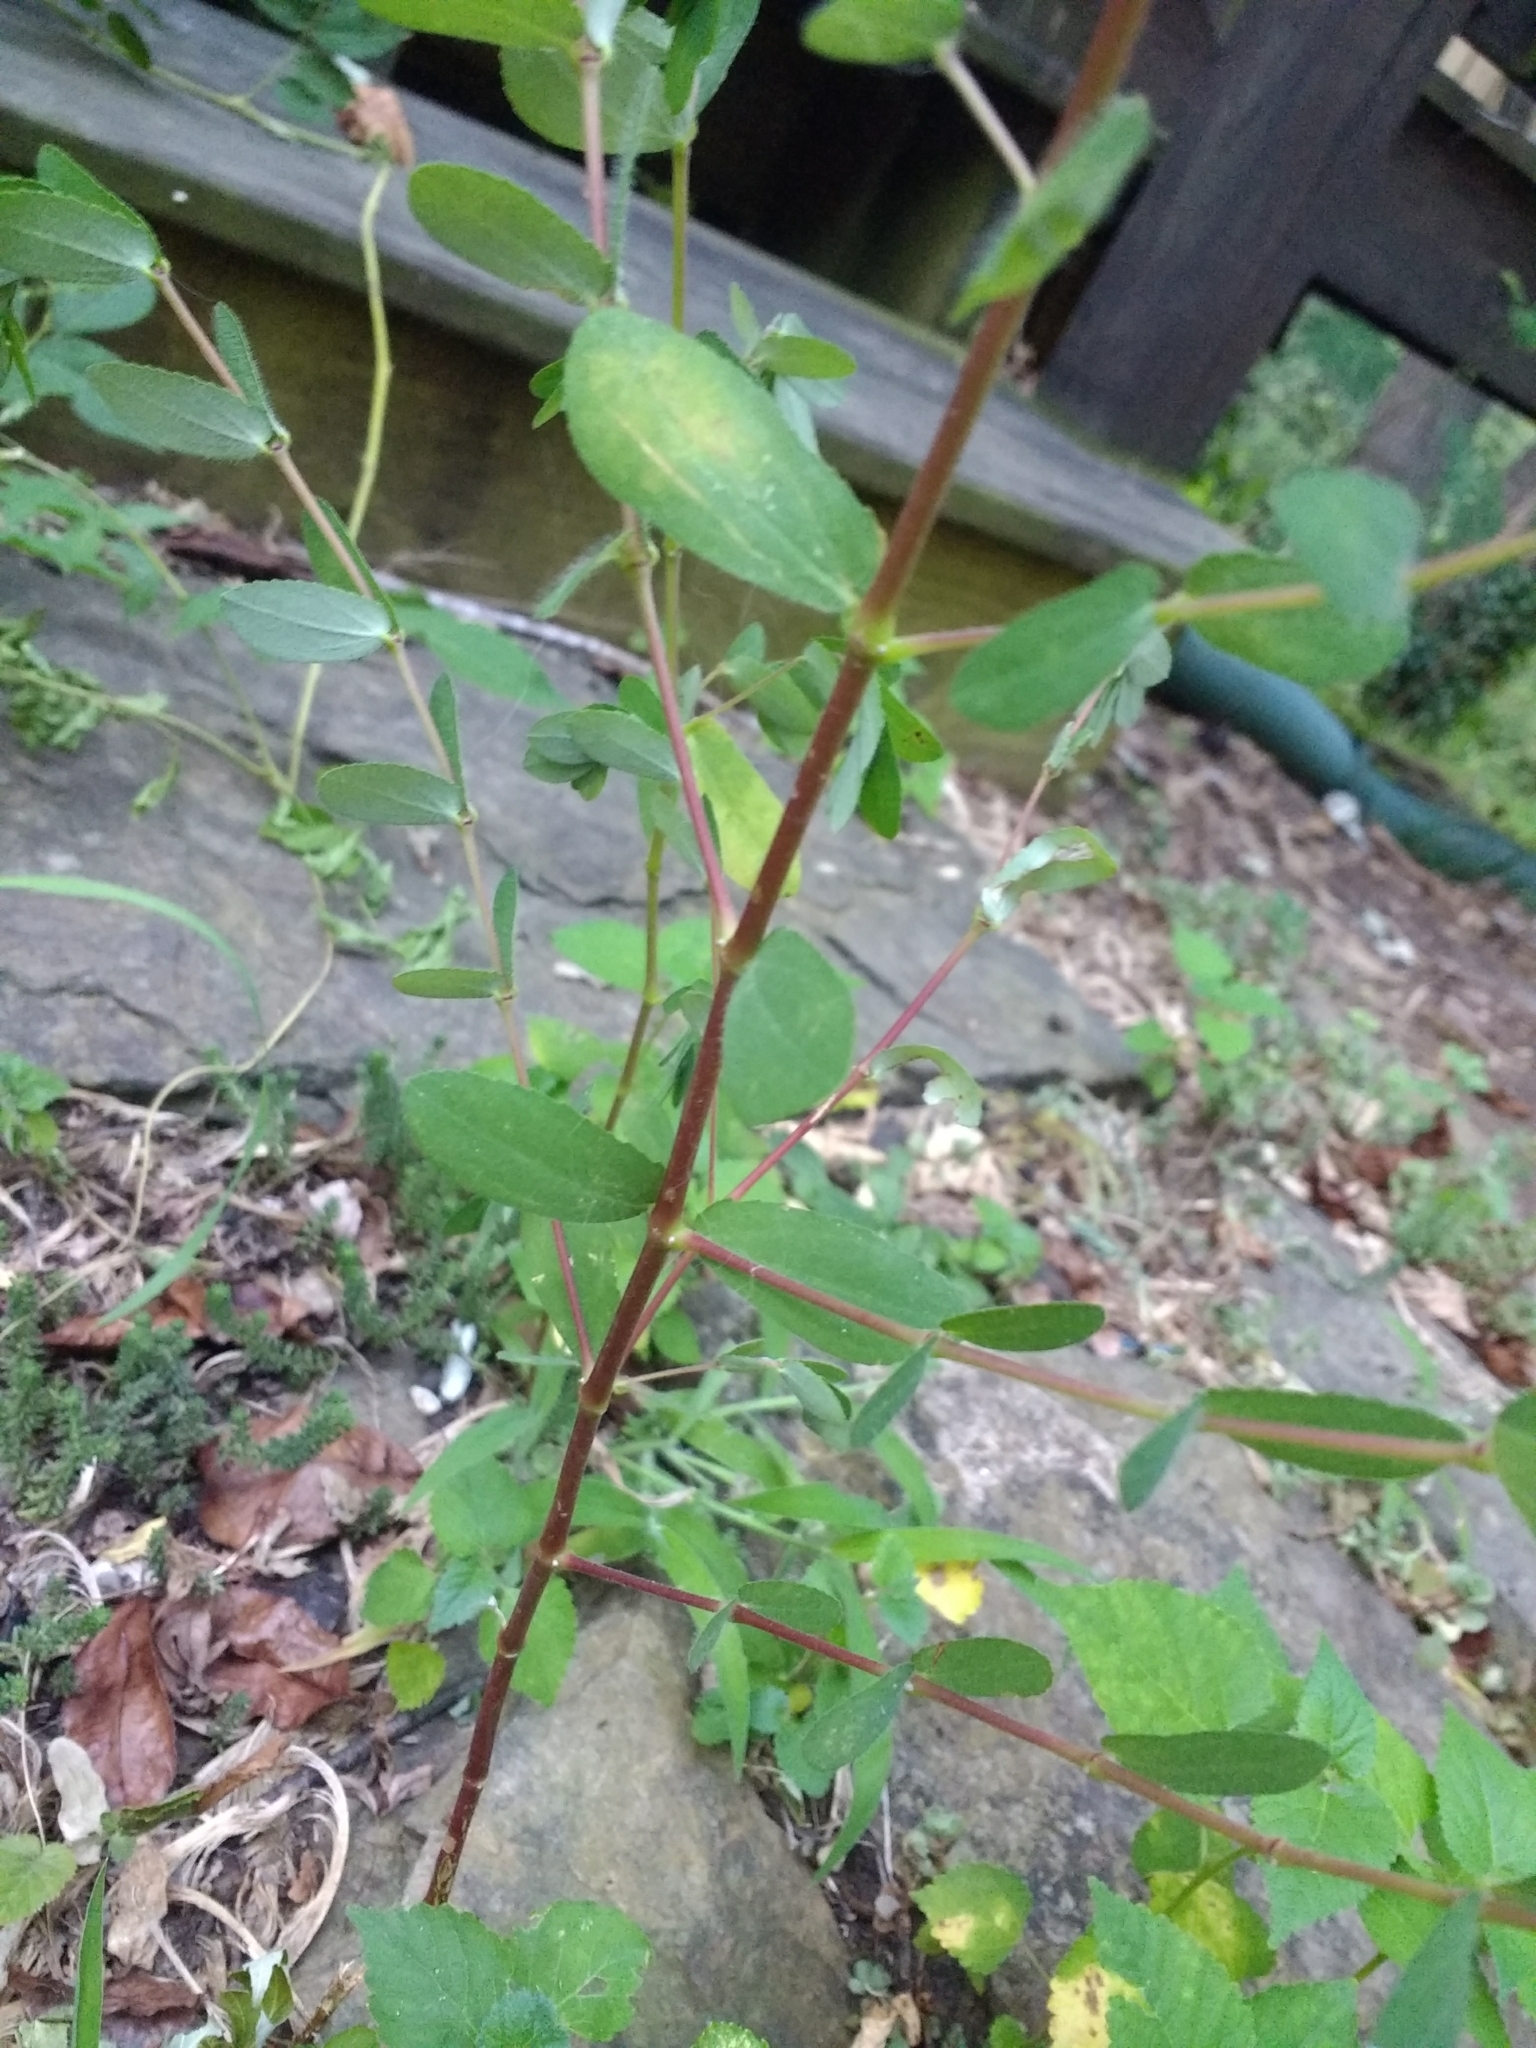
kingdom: Plantae
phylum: Tracheophyta
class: Magnoliopsida
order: Malpighiales
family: Euphorbiaceae
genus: Euphorbia
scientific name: Euphorbia nutans
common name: Eyebane
